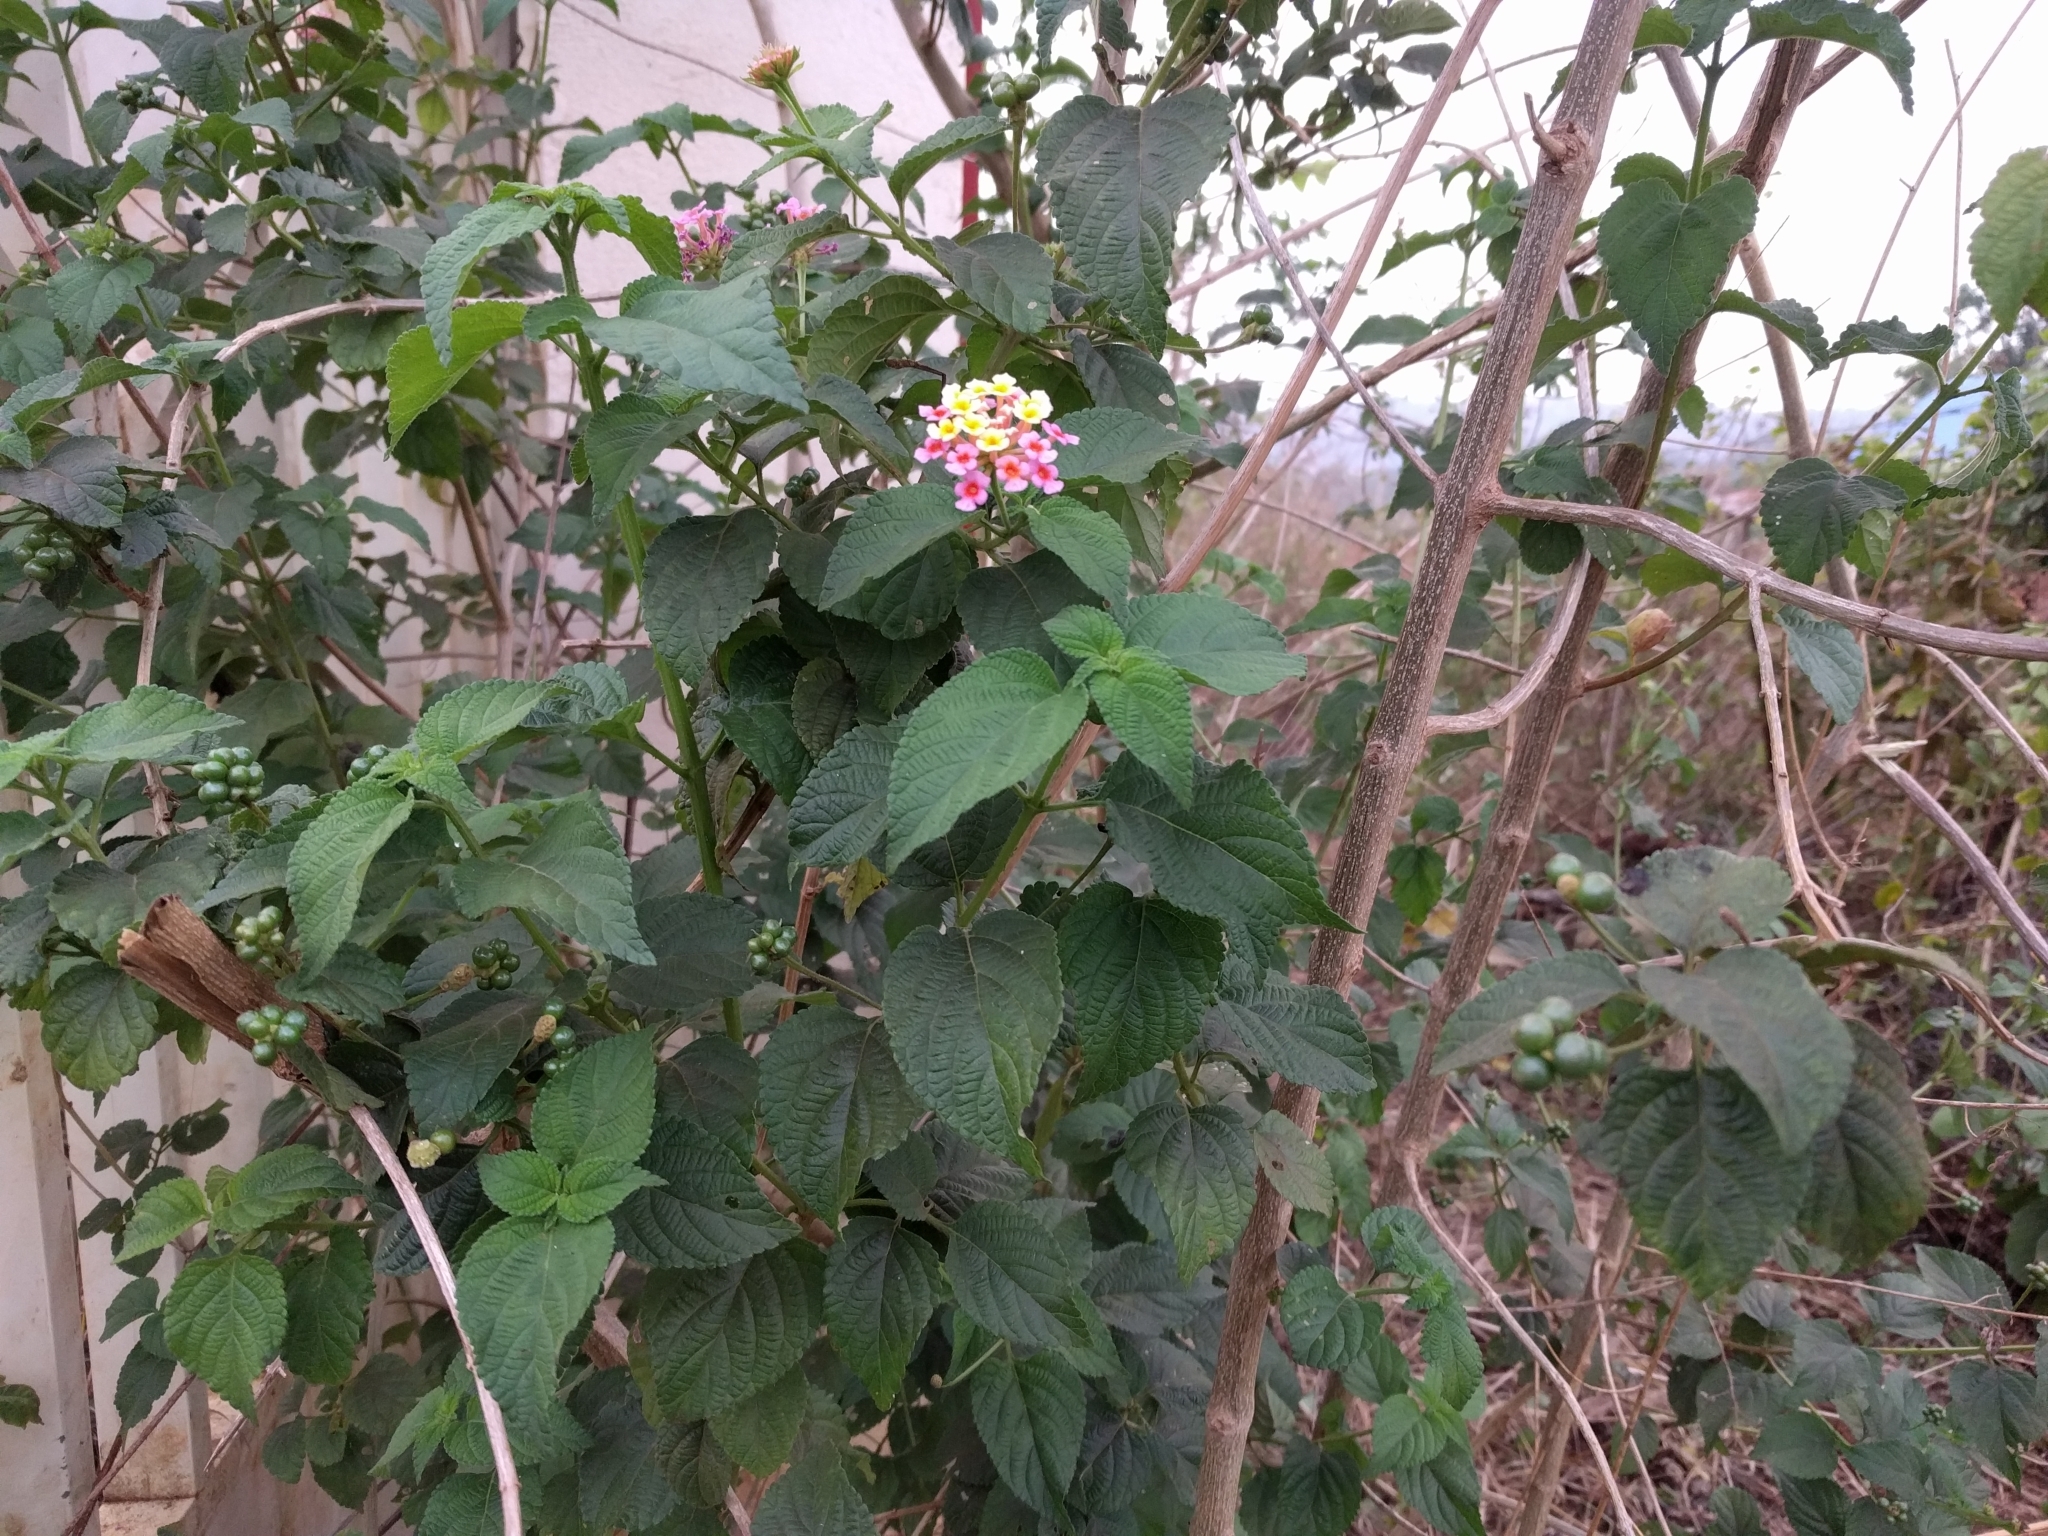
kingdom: Plantae
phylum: Tracheophyta
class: Magnoliopsida
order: Lamiales
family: Verbenaceae
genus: Lantana
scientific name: Lantana camara
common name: Lantana
